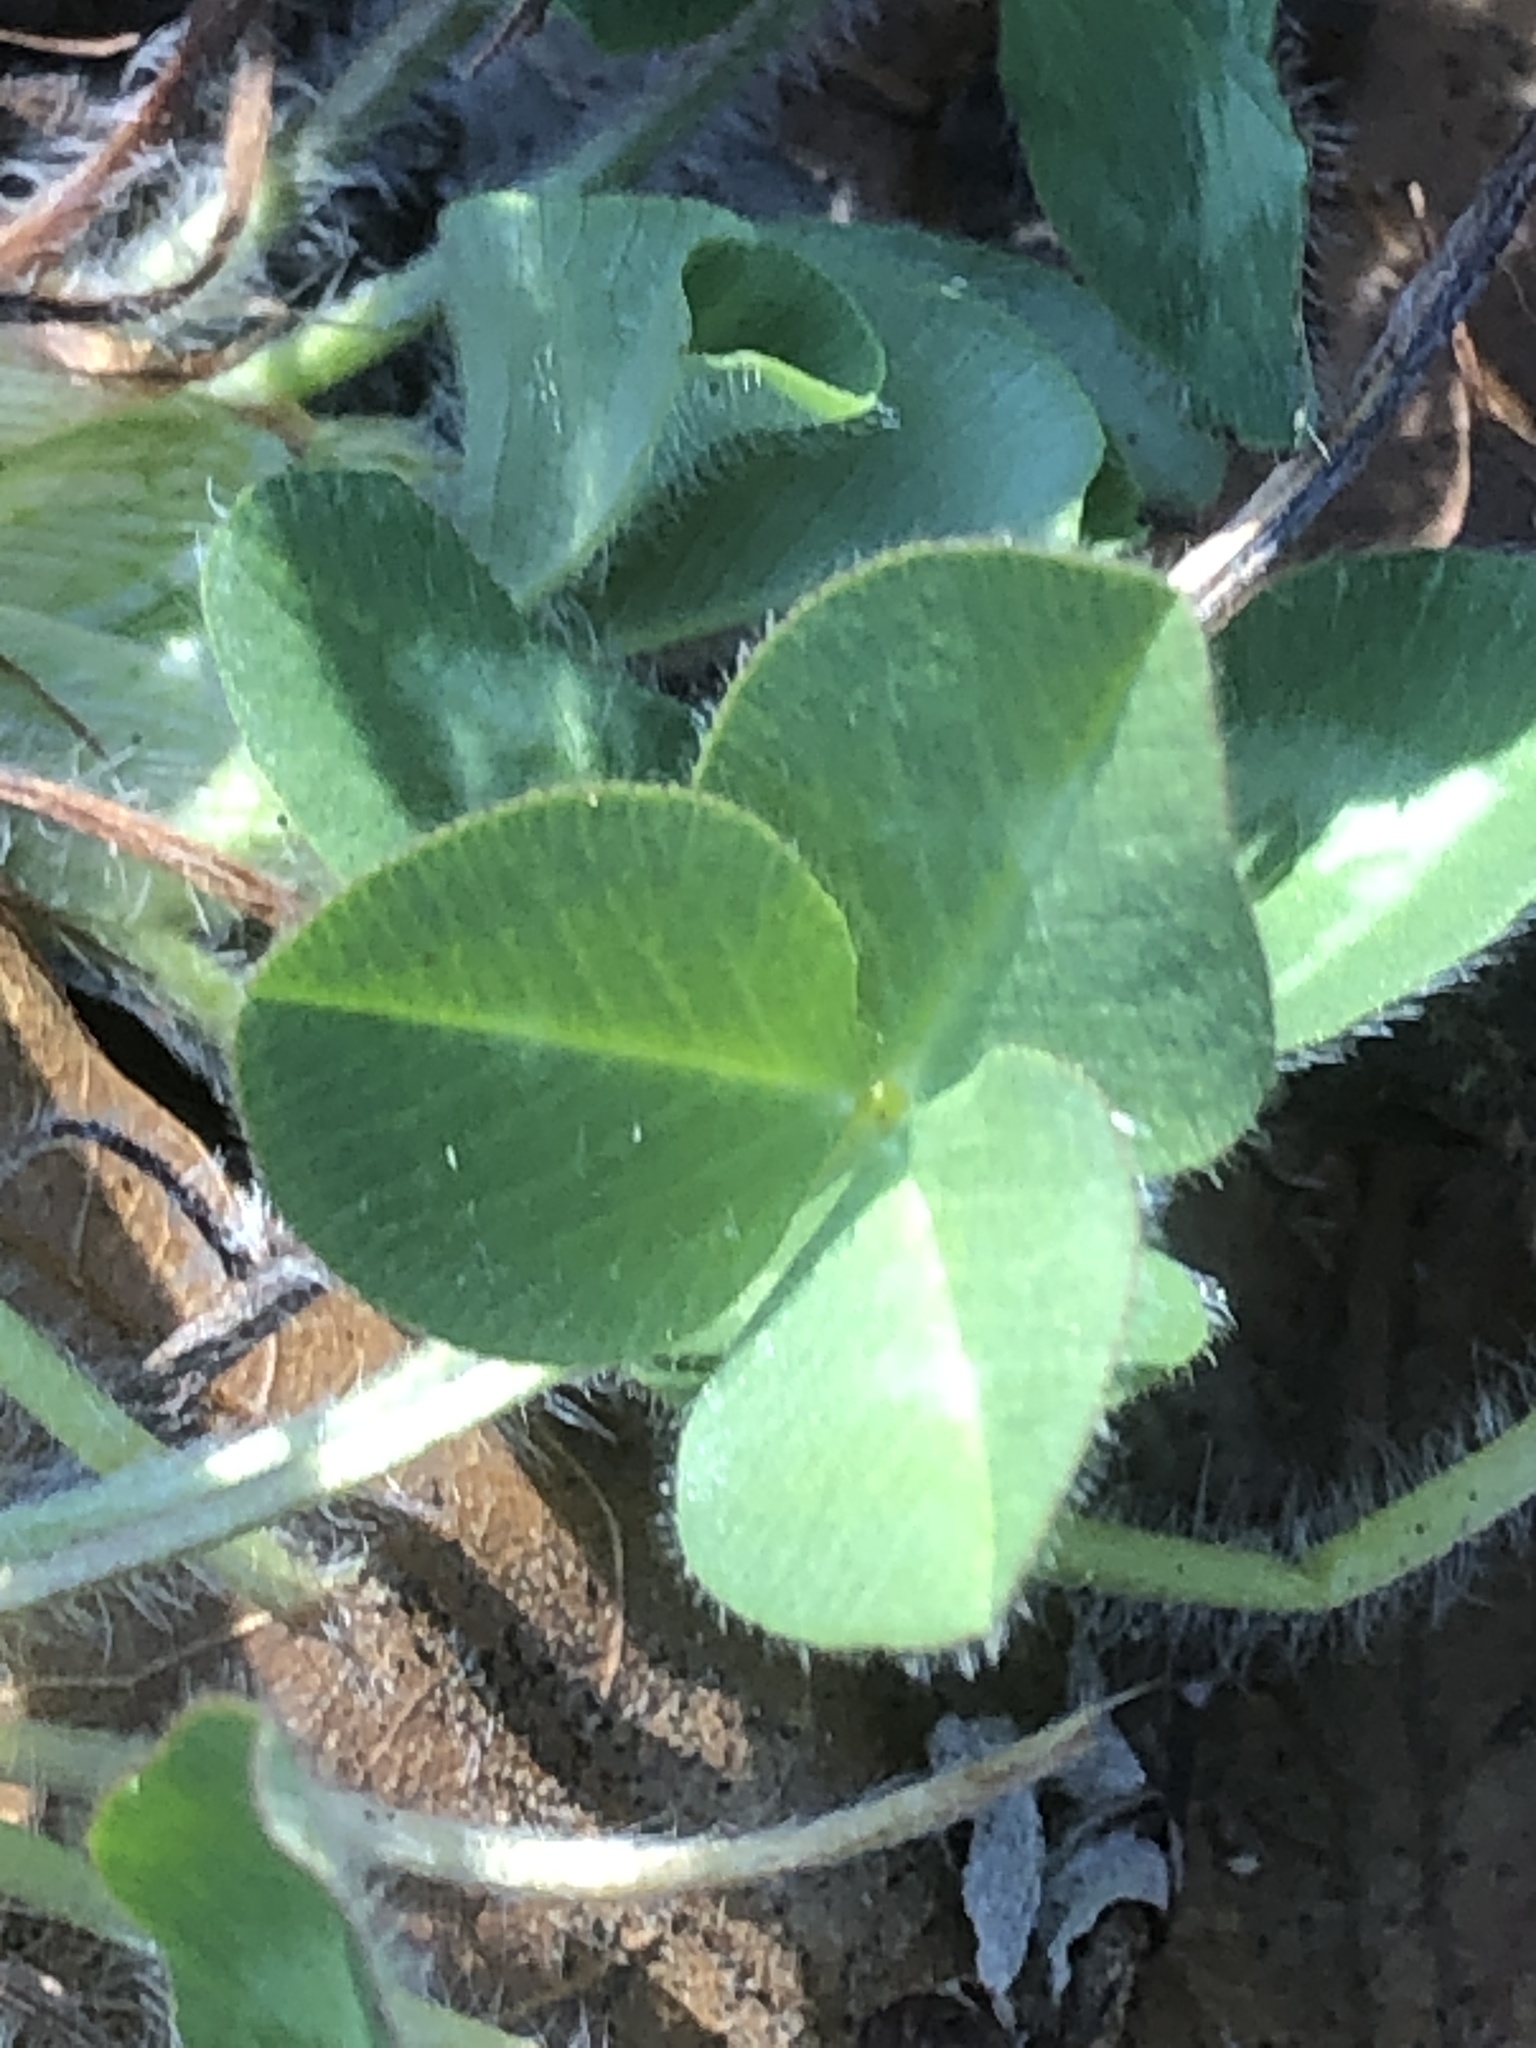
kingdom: Plantae
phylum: Tracheophyta
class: Magnoliopsida
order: Fabales
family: Fabaceae
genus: Trifolium
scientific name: Trifolium pratense
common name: Red clover
